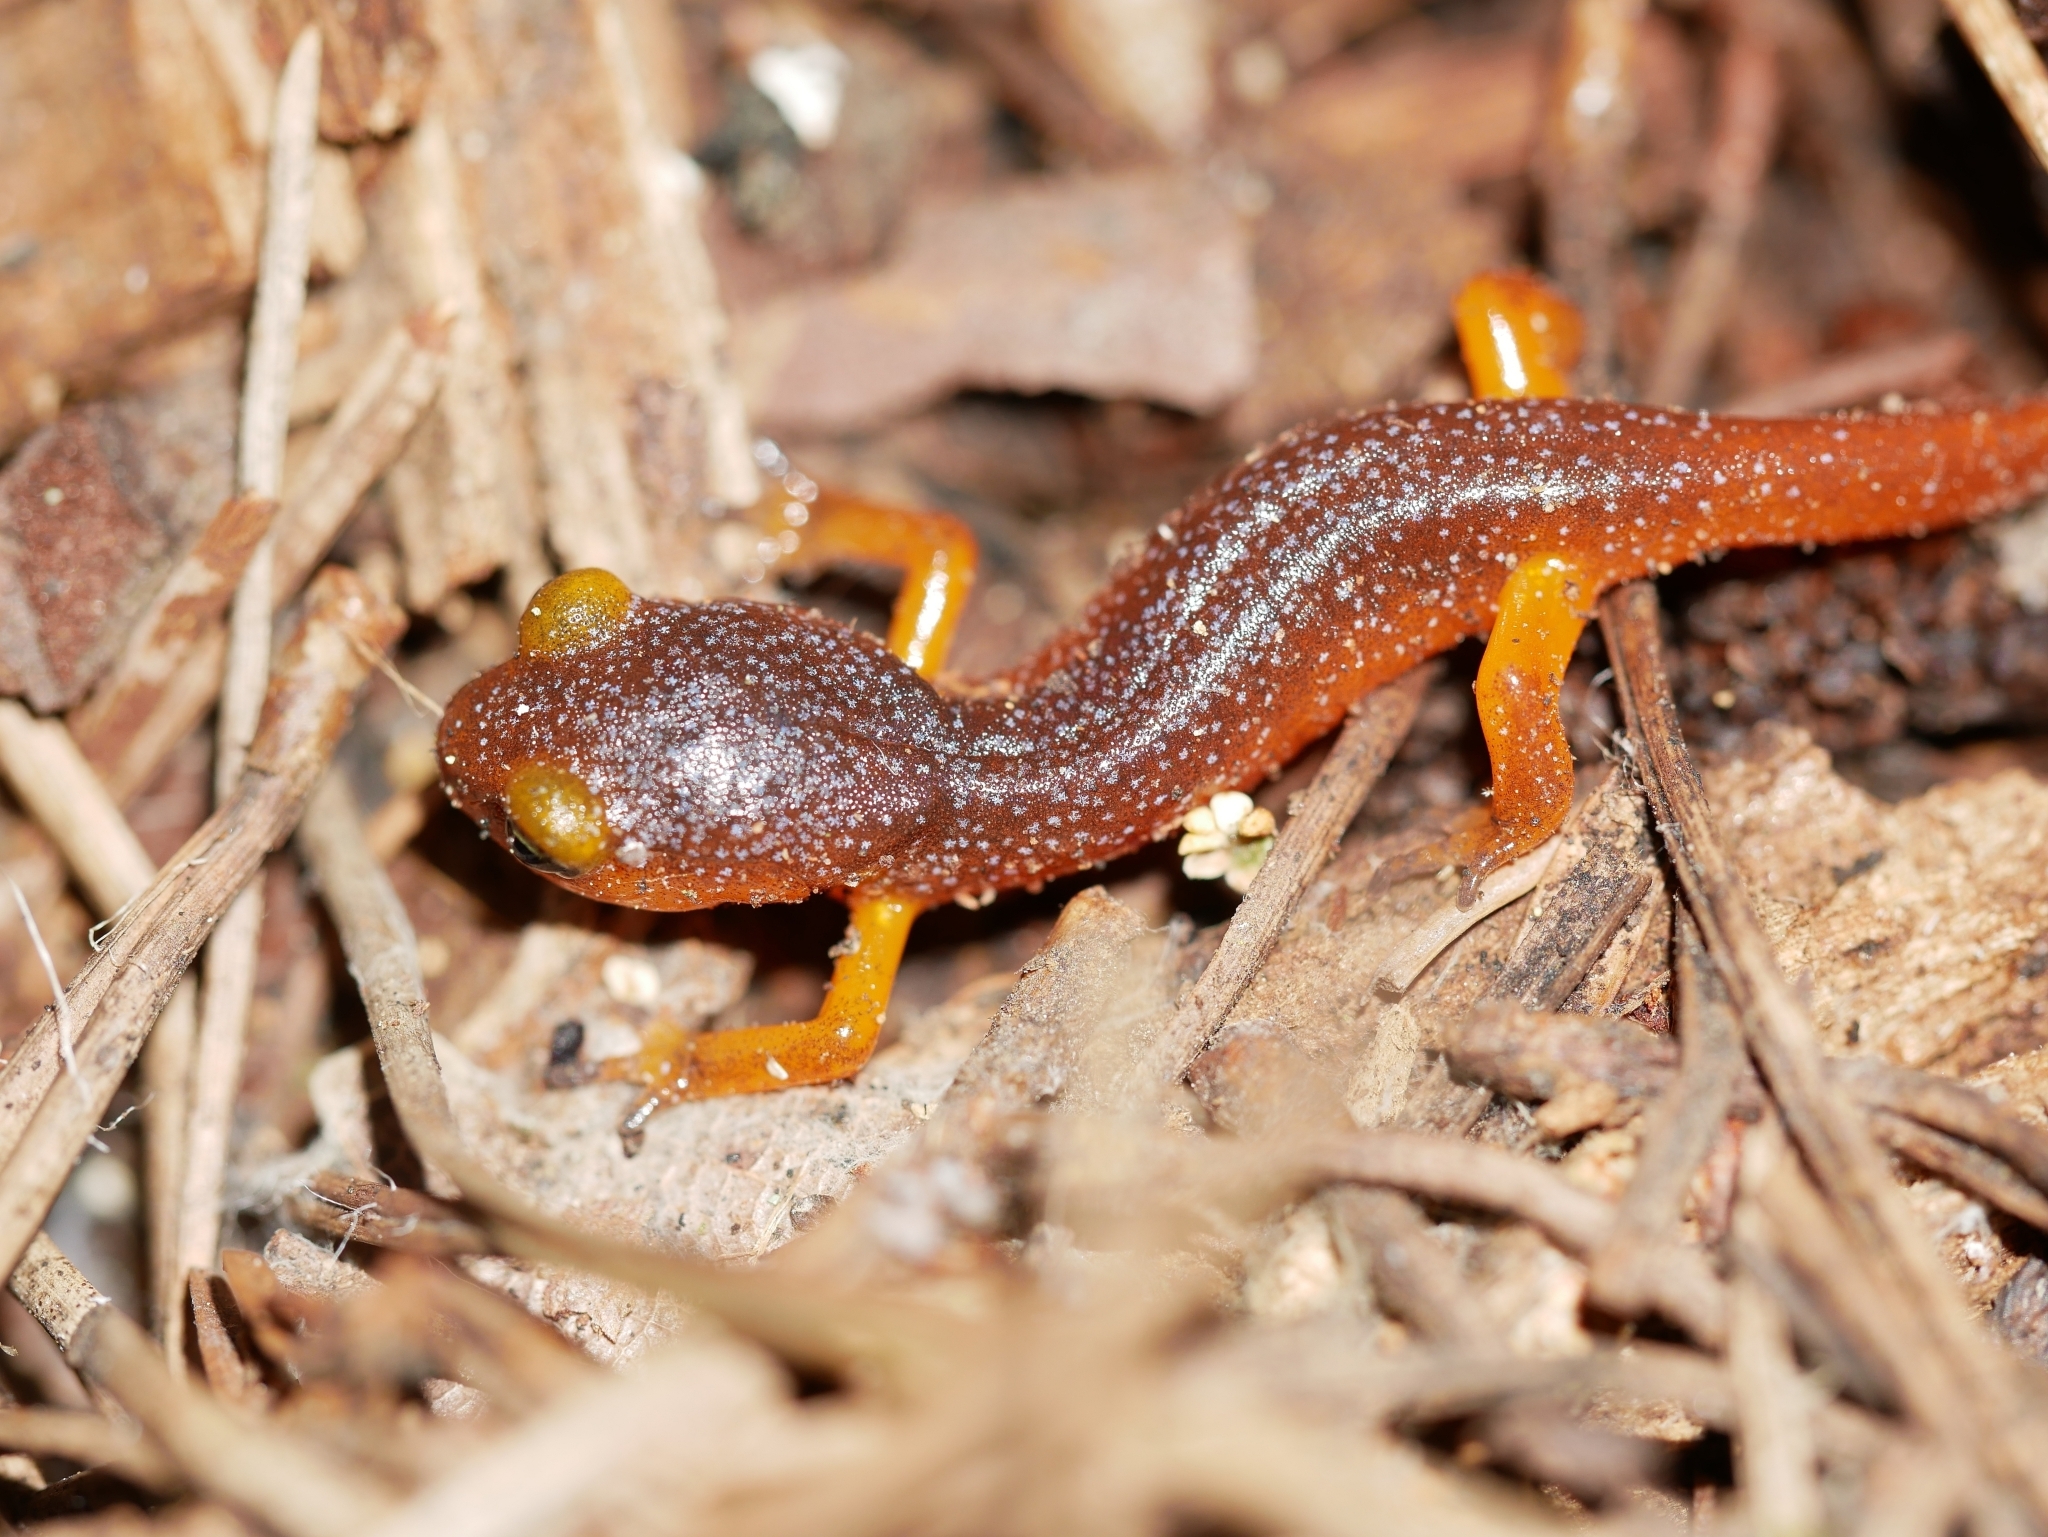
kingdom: Animalia
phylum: Chordata
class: Amphibia
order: Caudata
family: Plethodontidae
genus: Ensatina
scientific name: Ensatina eschscholtzii
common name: Ensatina
